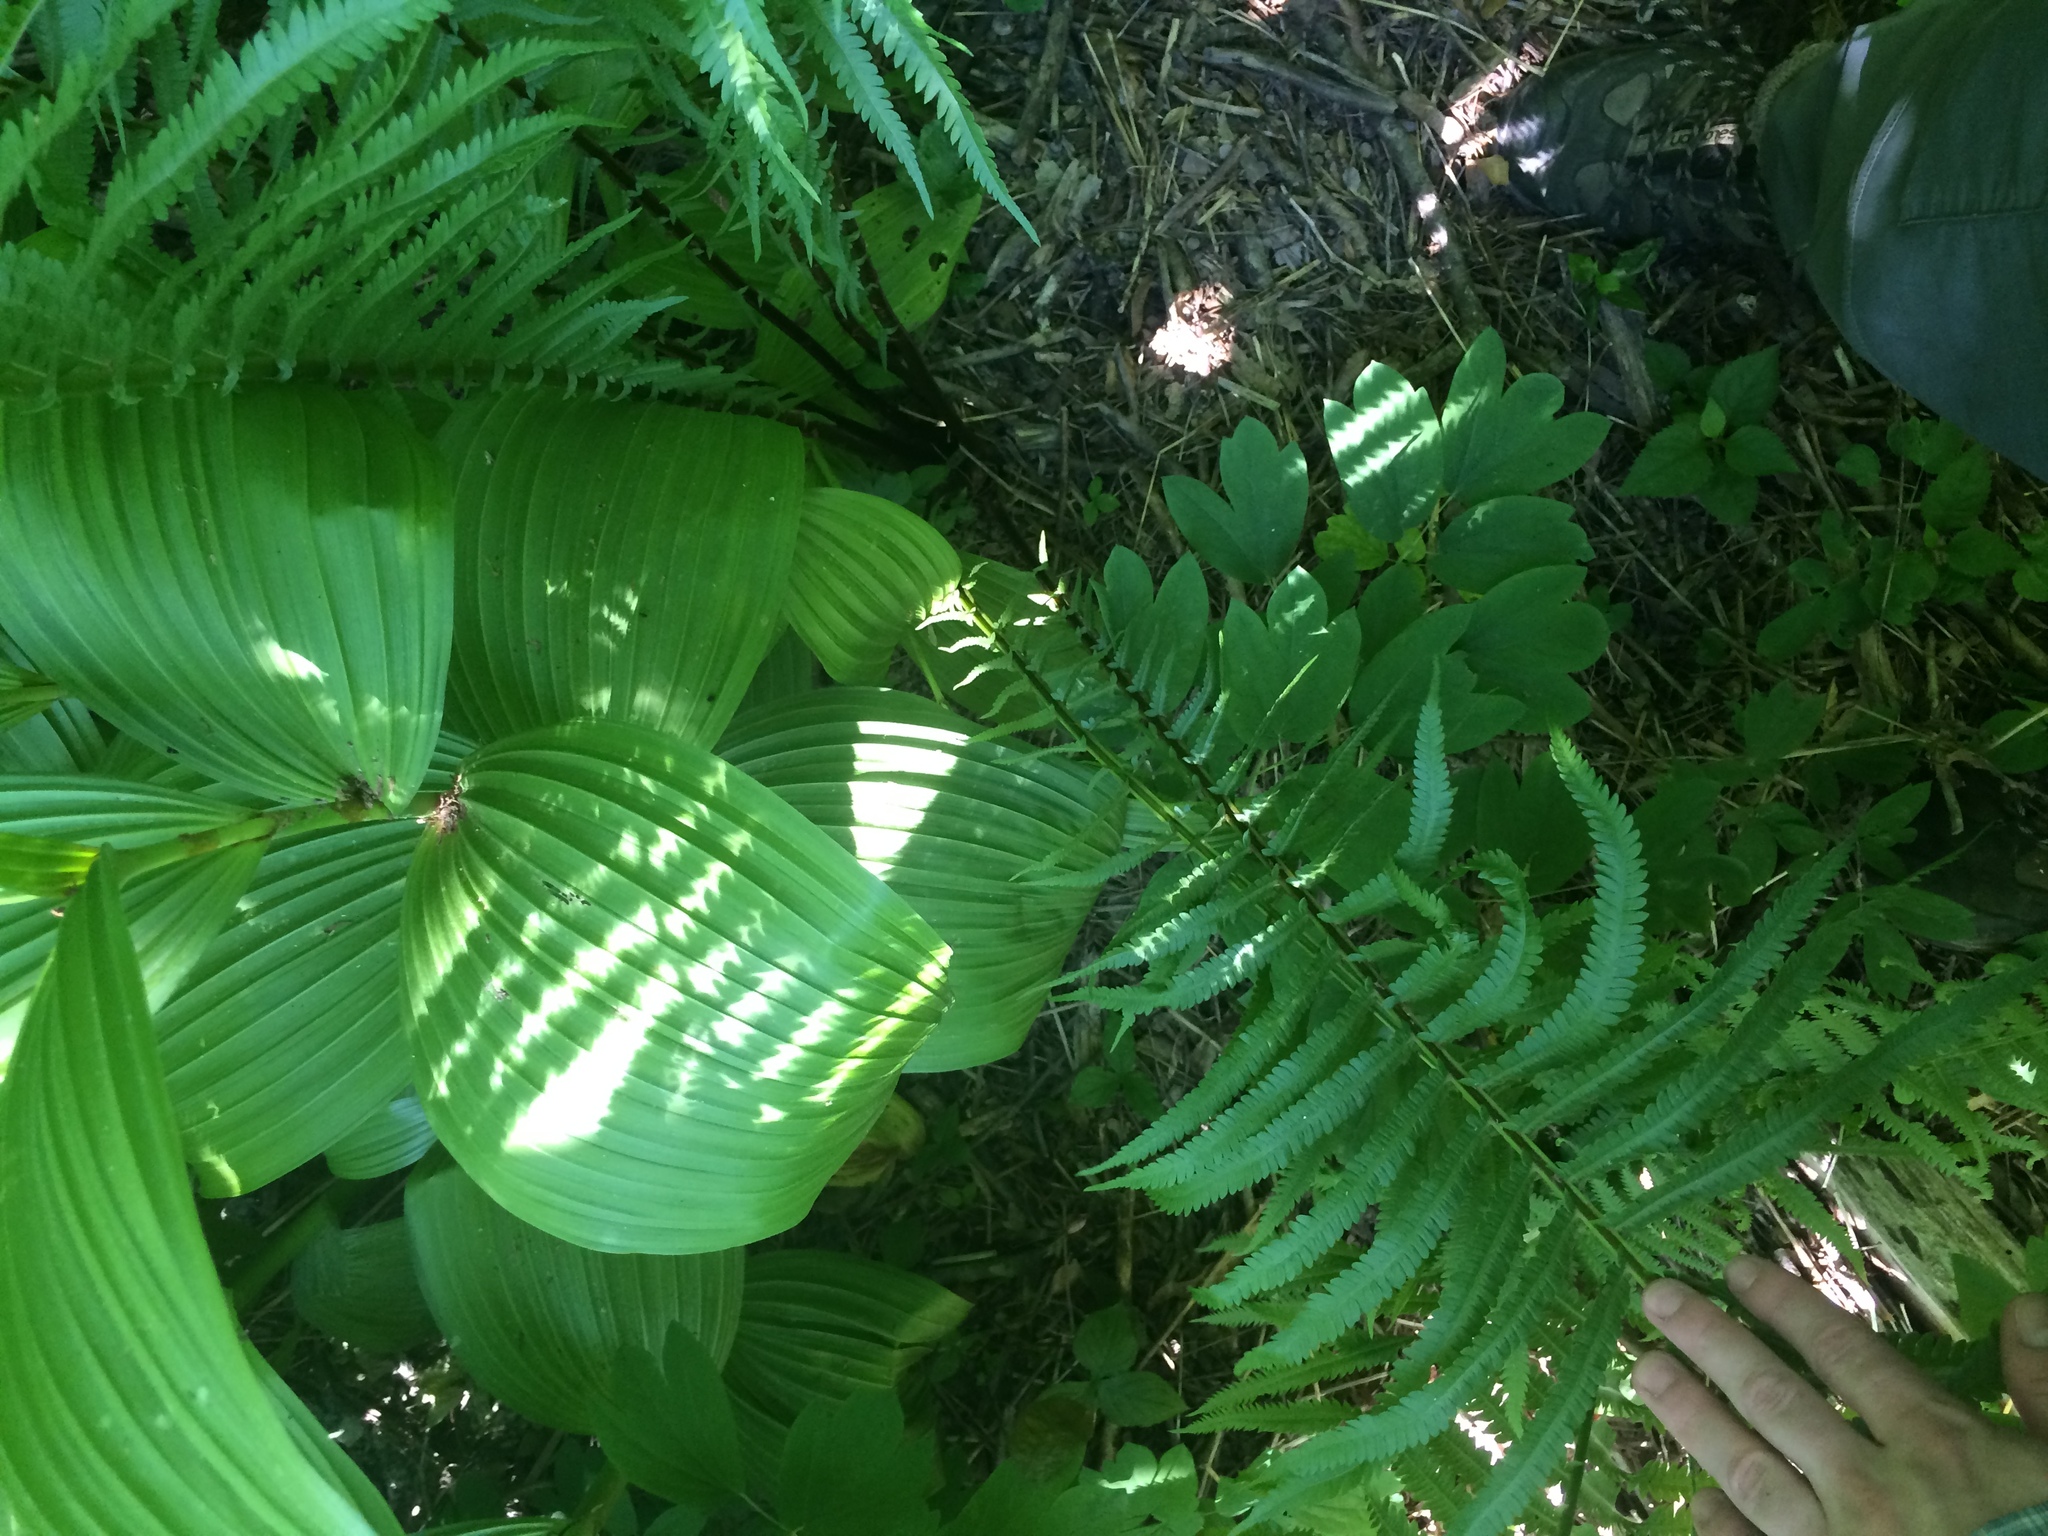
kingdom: Plantae
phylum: Tracheophyta
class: Polypodiopsida
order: Polypodiales
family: Onocleaceae
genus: Matteuccia
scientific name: Matteuccia struthiopteris
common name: Ostrich fern
